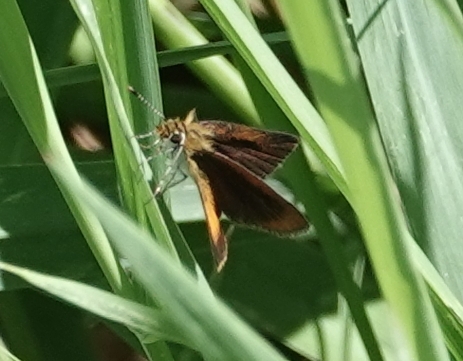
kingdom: Animalia
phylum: Arthropoda
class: Insecta
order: Lepidoptera
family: Hesperiidae
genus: Ancyloxypha
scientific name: Ancyloxypha numitor
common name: Least skipper
